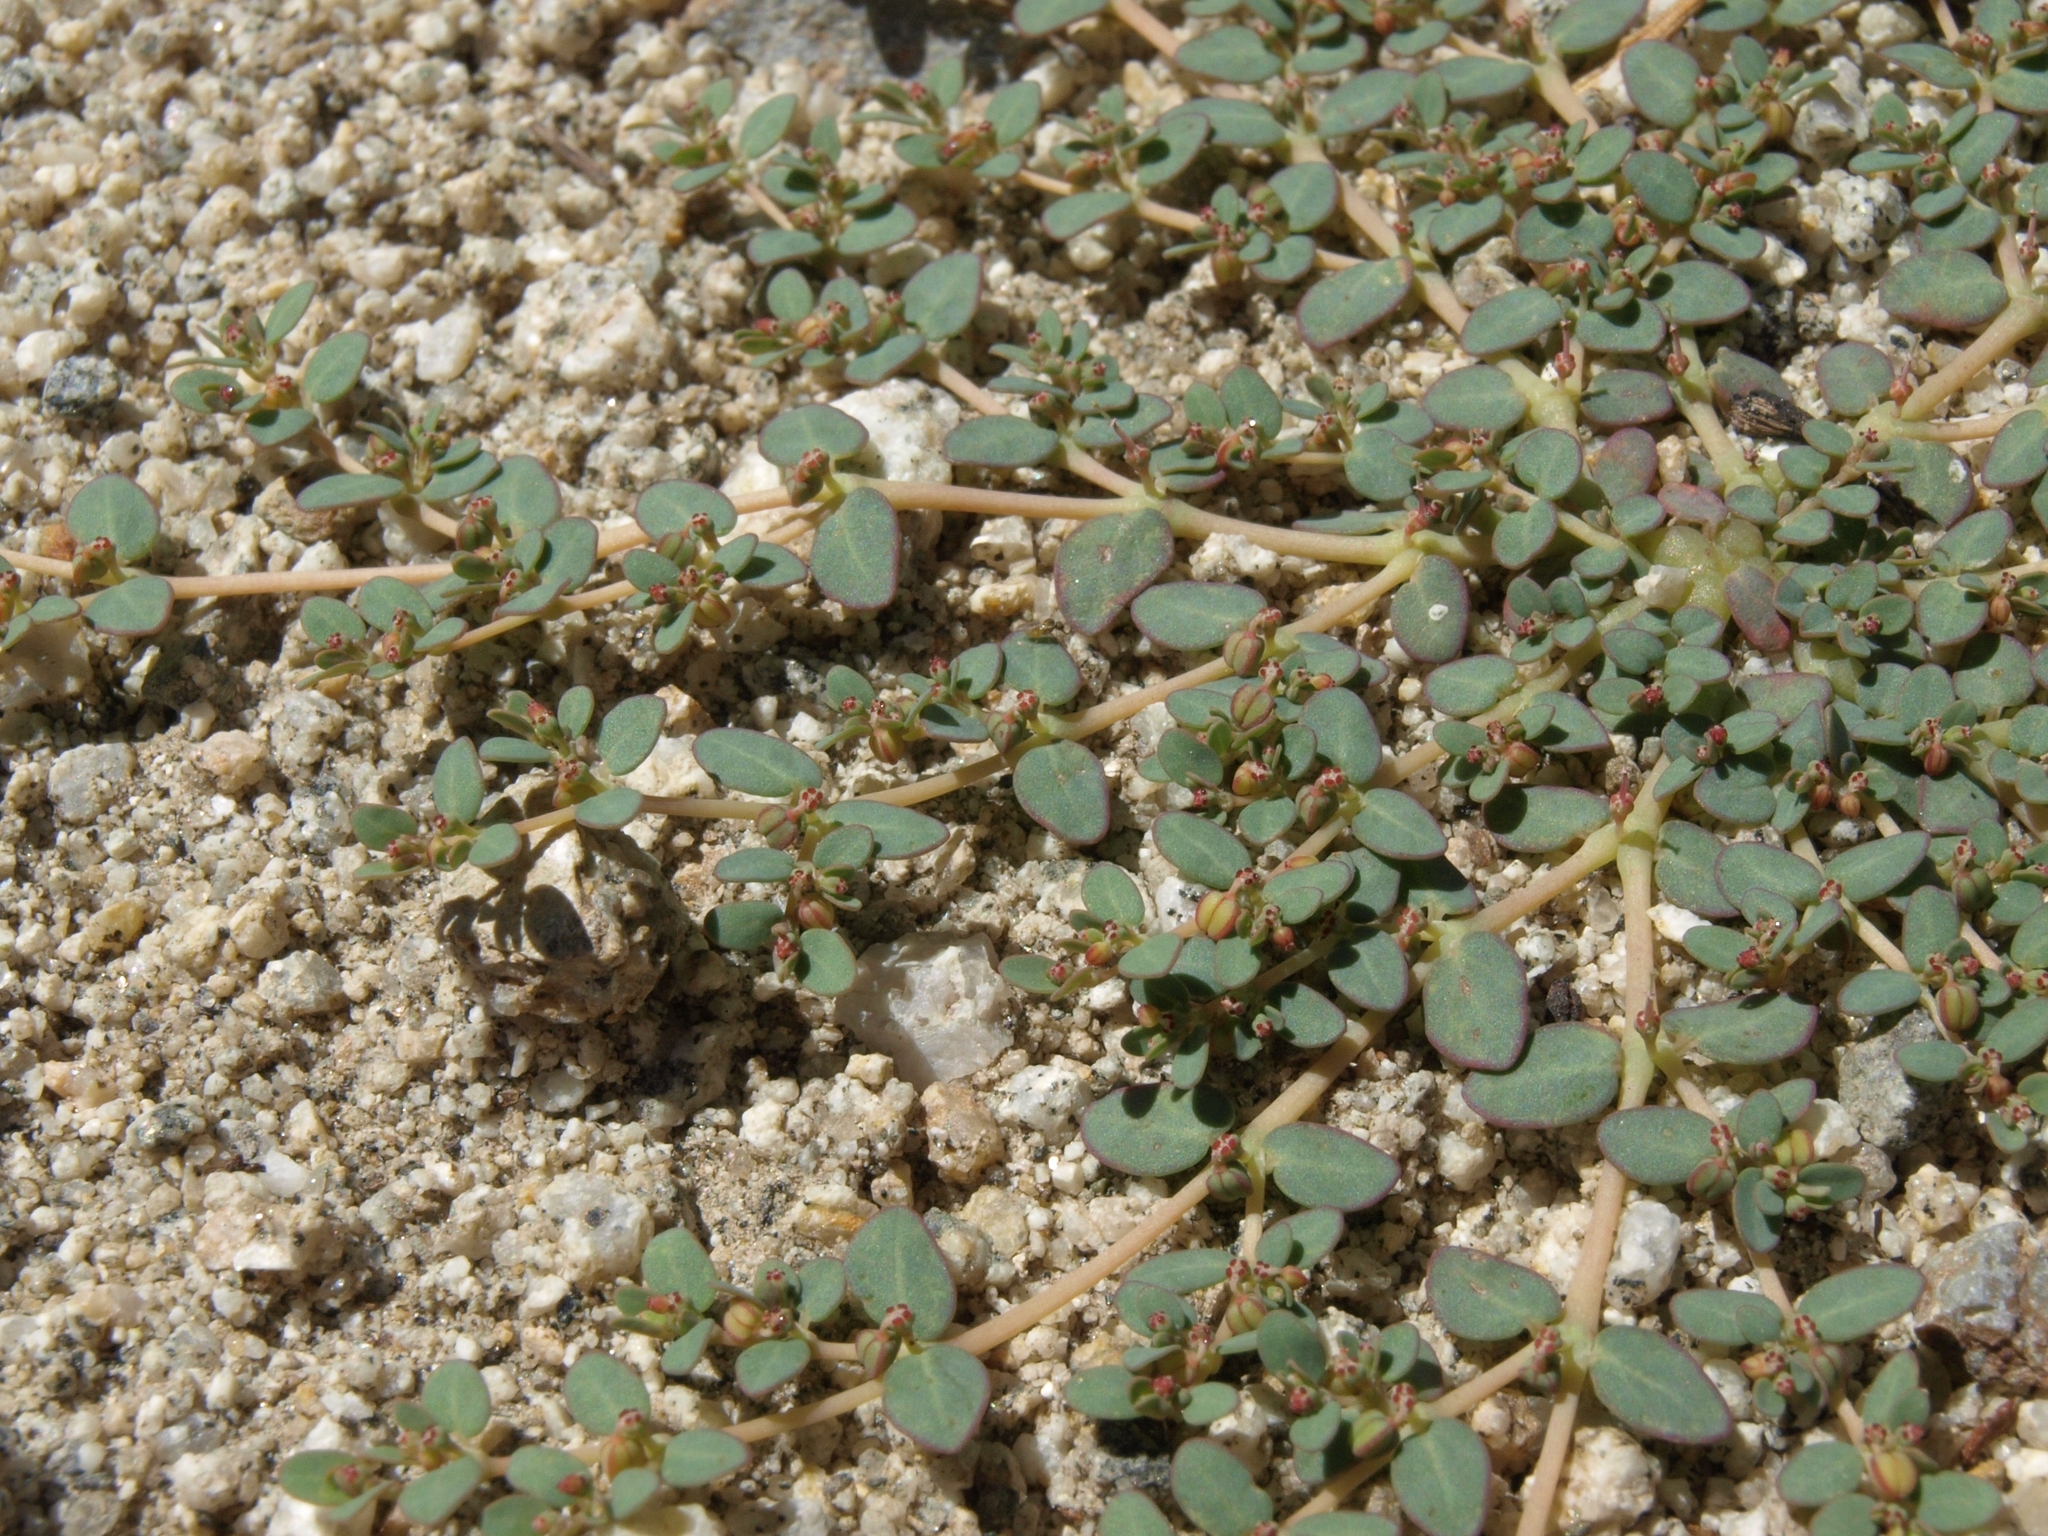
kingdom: Plantae
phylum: Tracheophyta
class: Magnoliopsida
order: Malpighiales
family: Euphorbiaceae
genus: Euphorbia
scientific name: Euphorbia micromera
